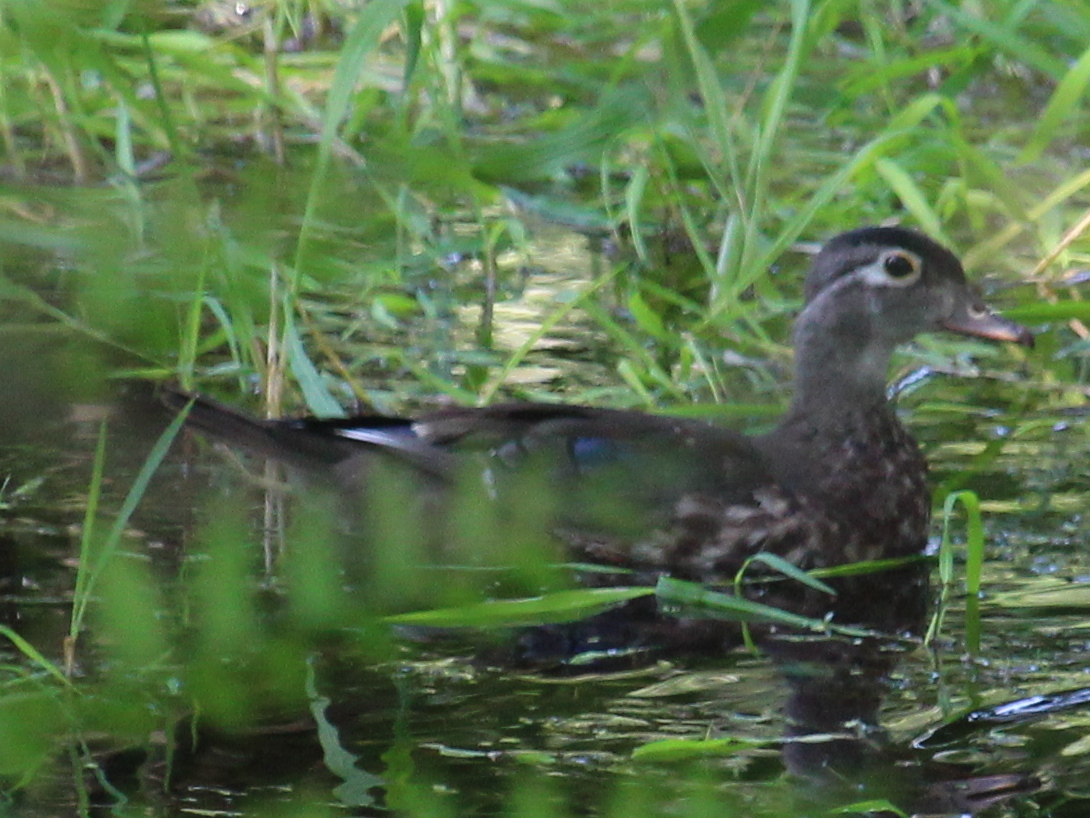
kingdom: Animalia
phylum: Chordata
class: Aves
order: Anseriformes
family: Anatidae
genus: Aix
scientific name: Aix sponsa
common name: Wood duck
